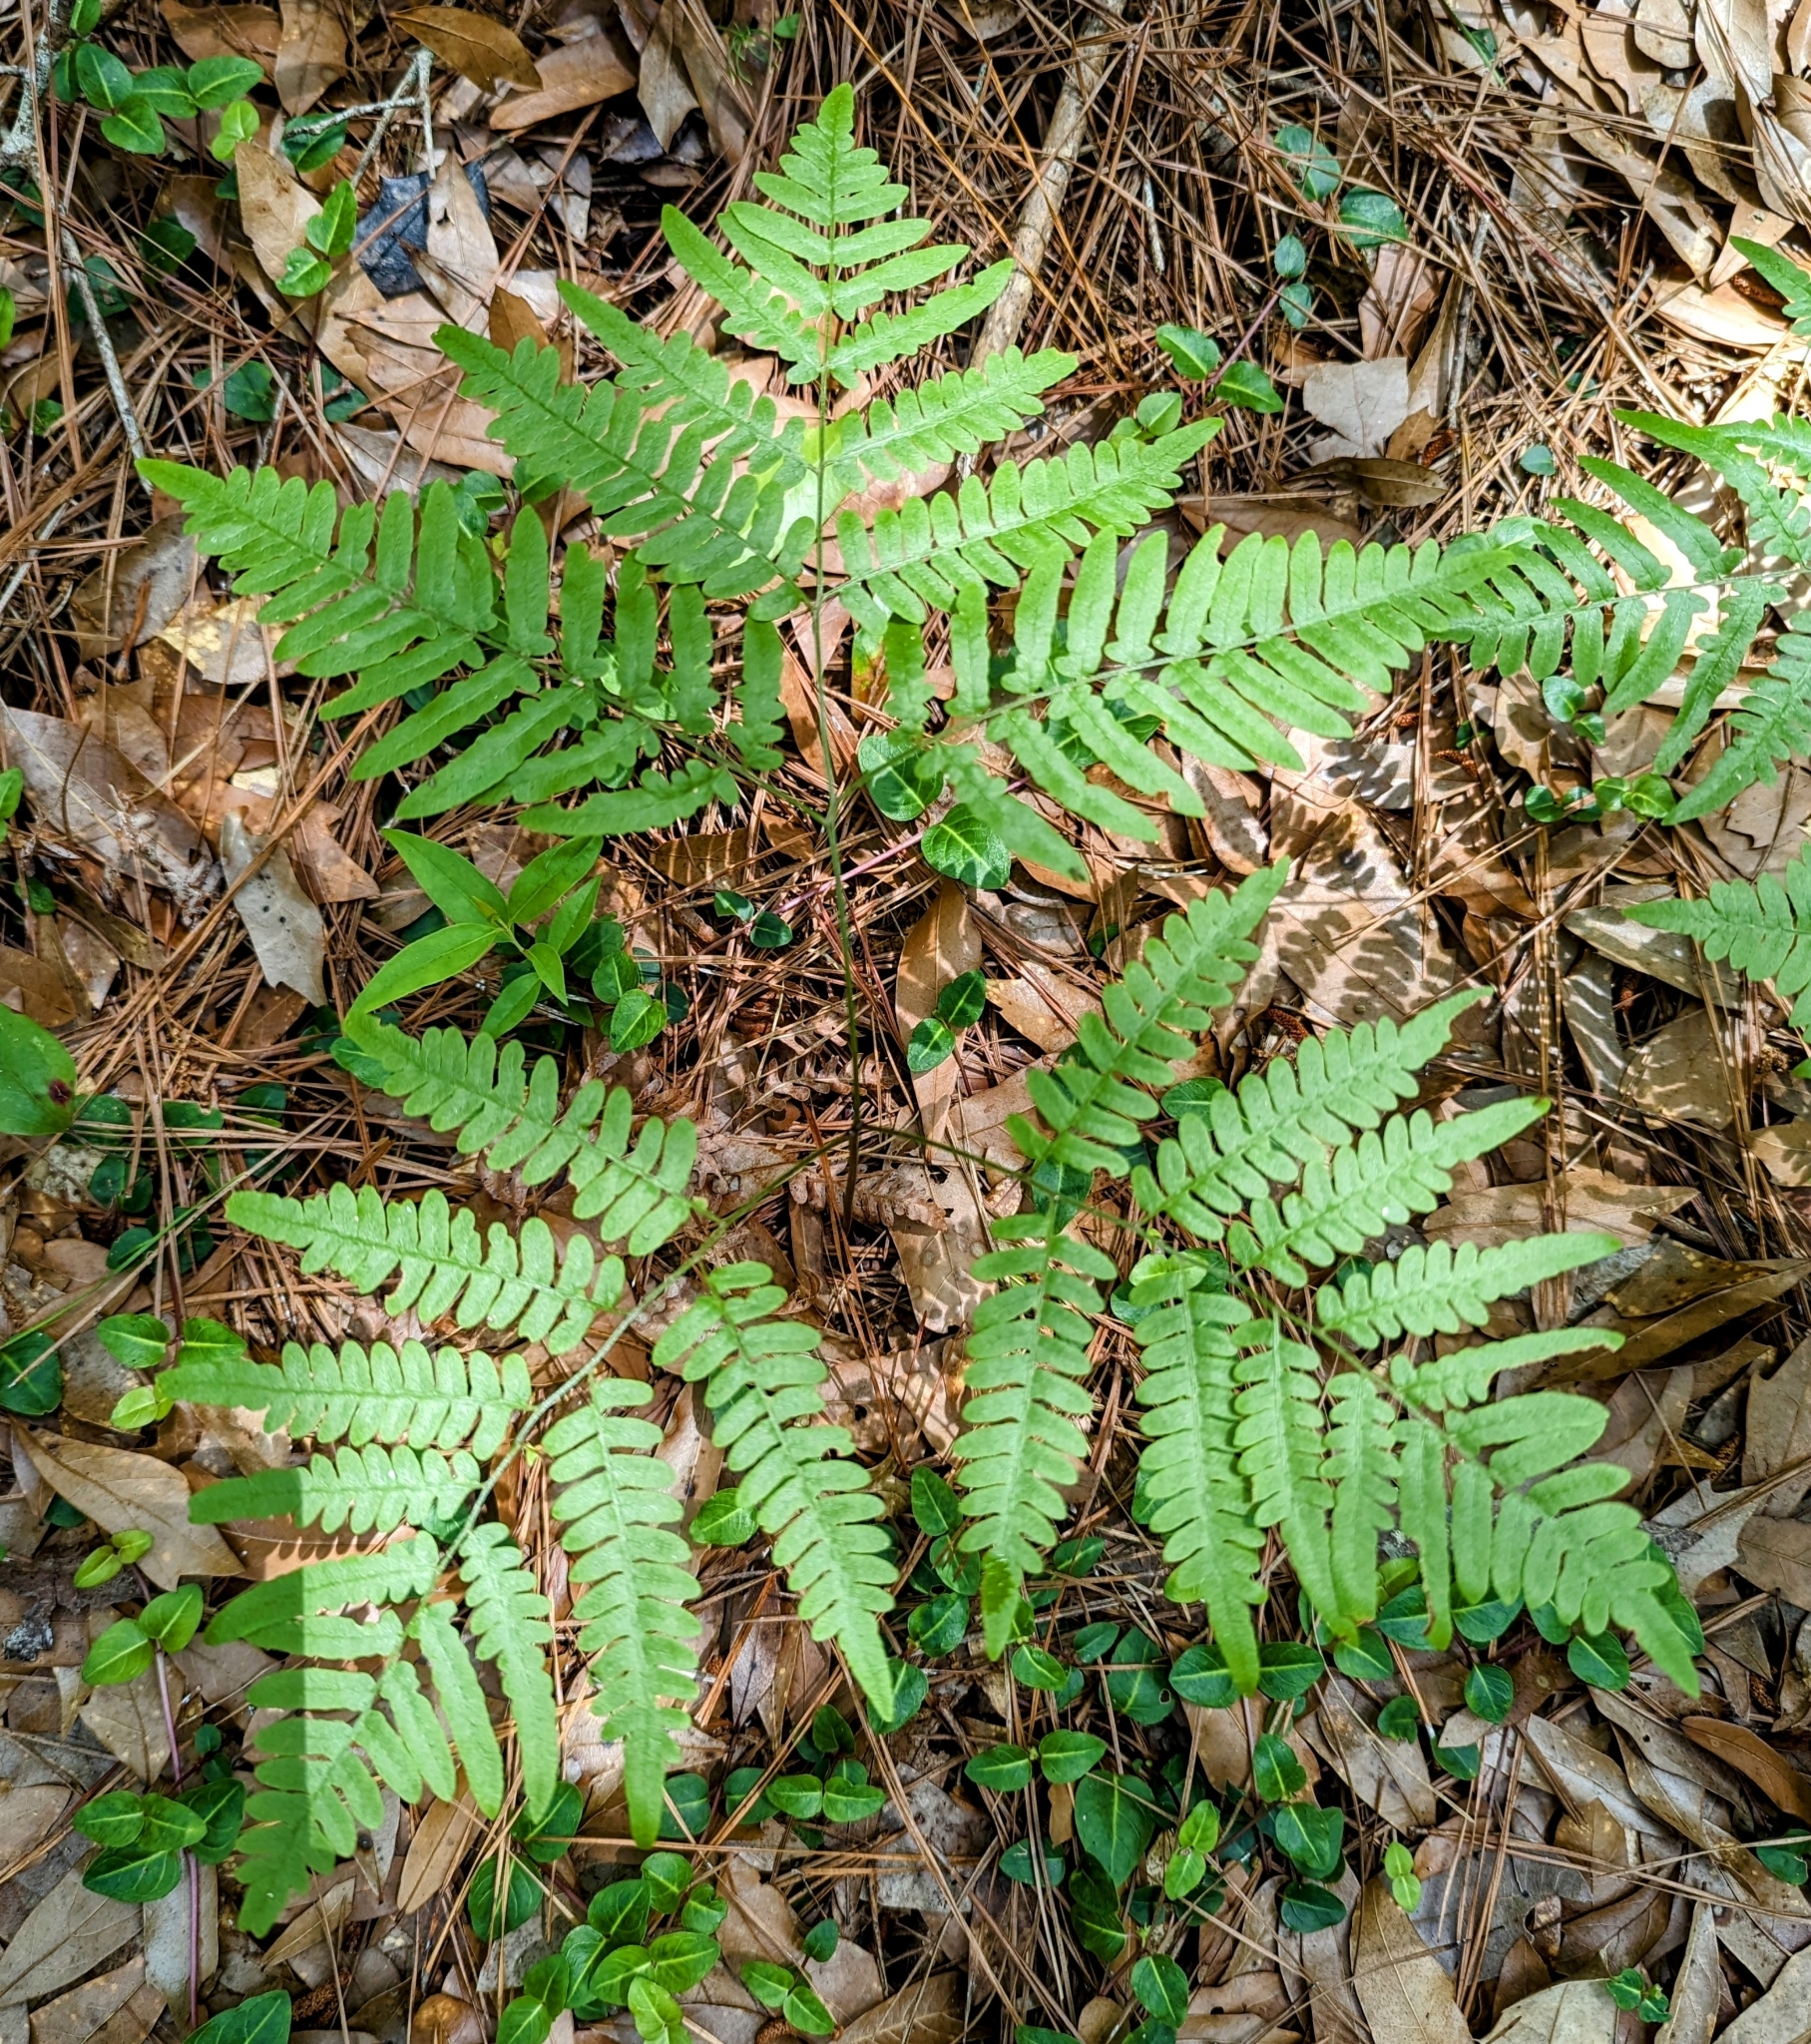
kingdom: Plantae
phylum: Tracheophyta
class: Polypodiopsida
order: Polypodiales
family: Dennstaedtiaceae
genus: Pteridium
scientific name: Pteridium aquilinum
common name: Bracken
